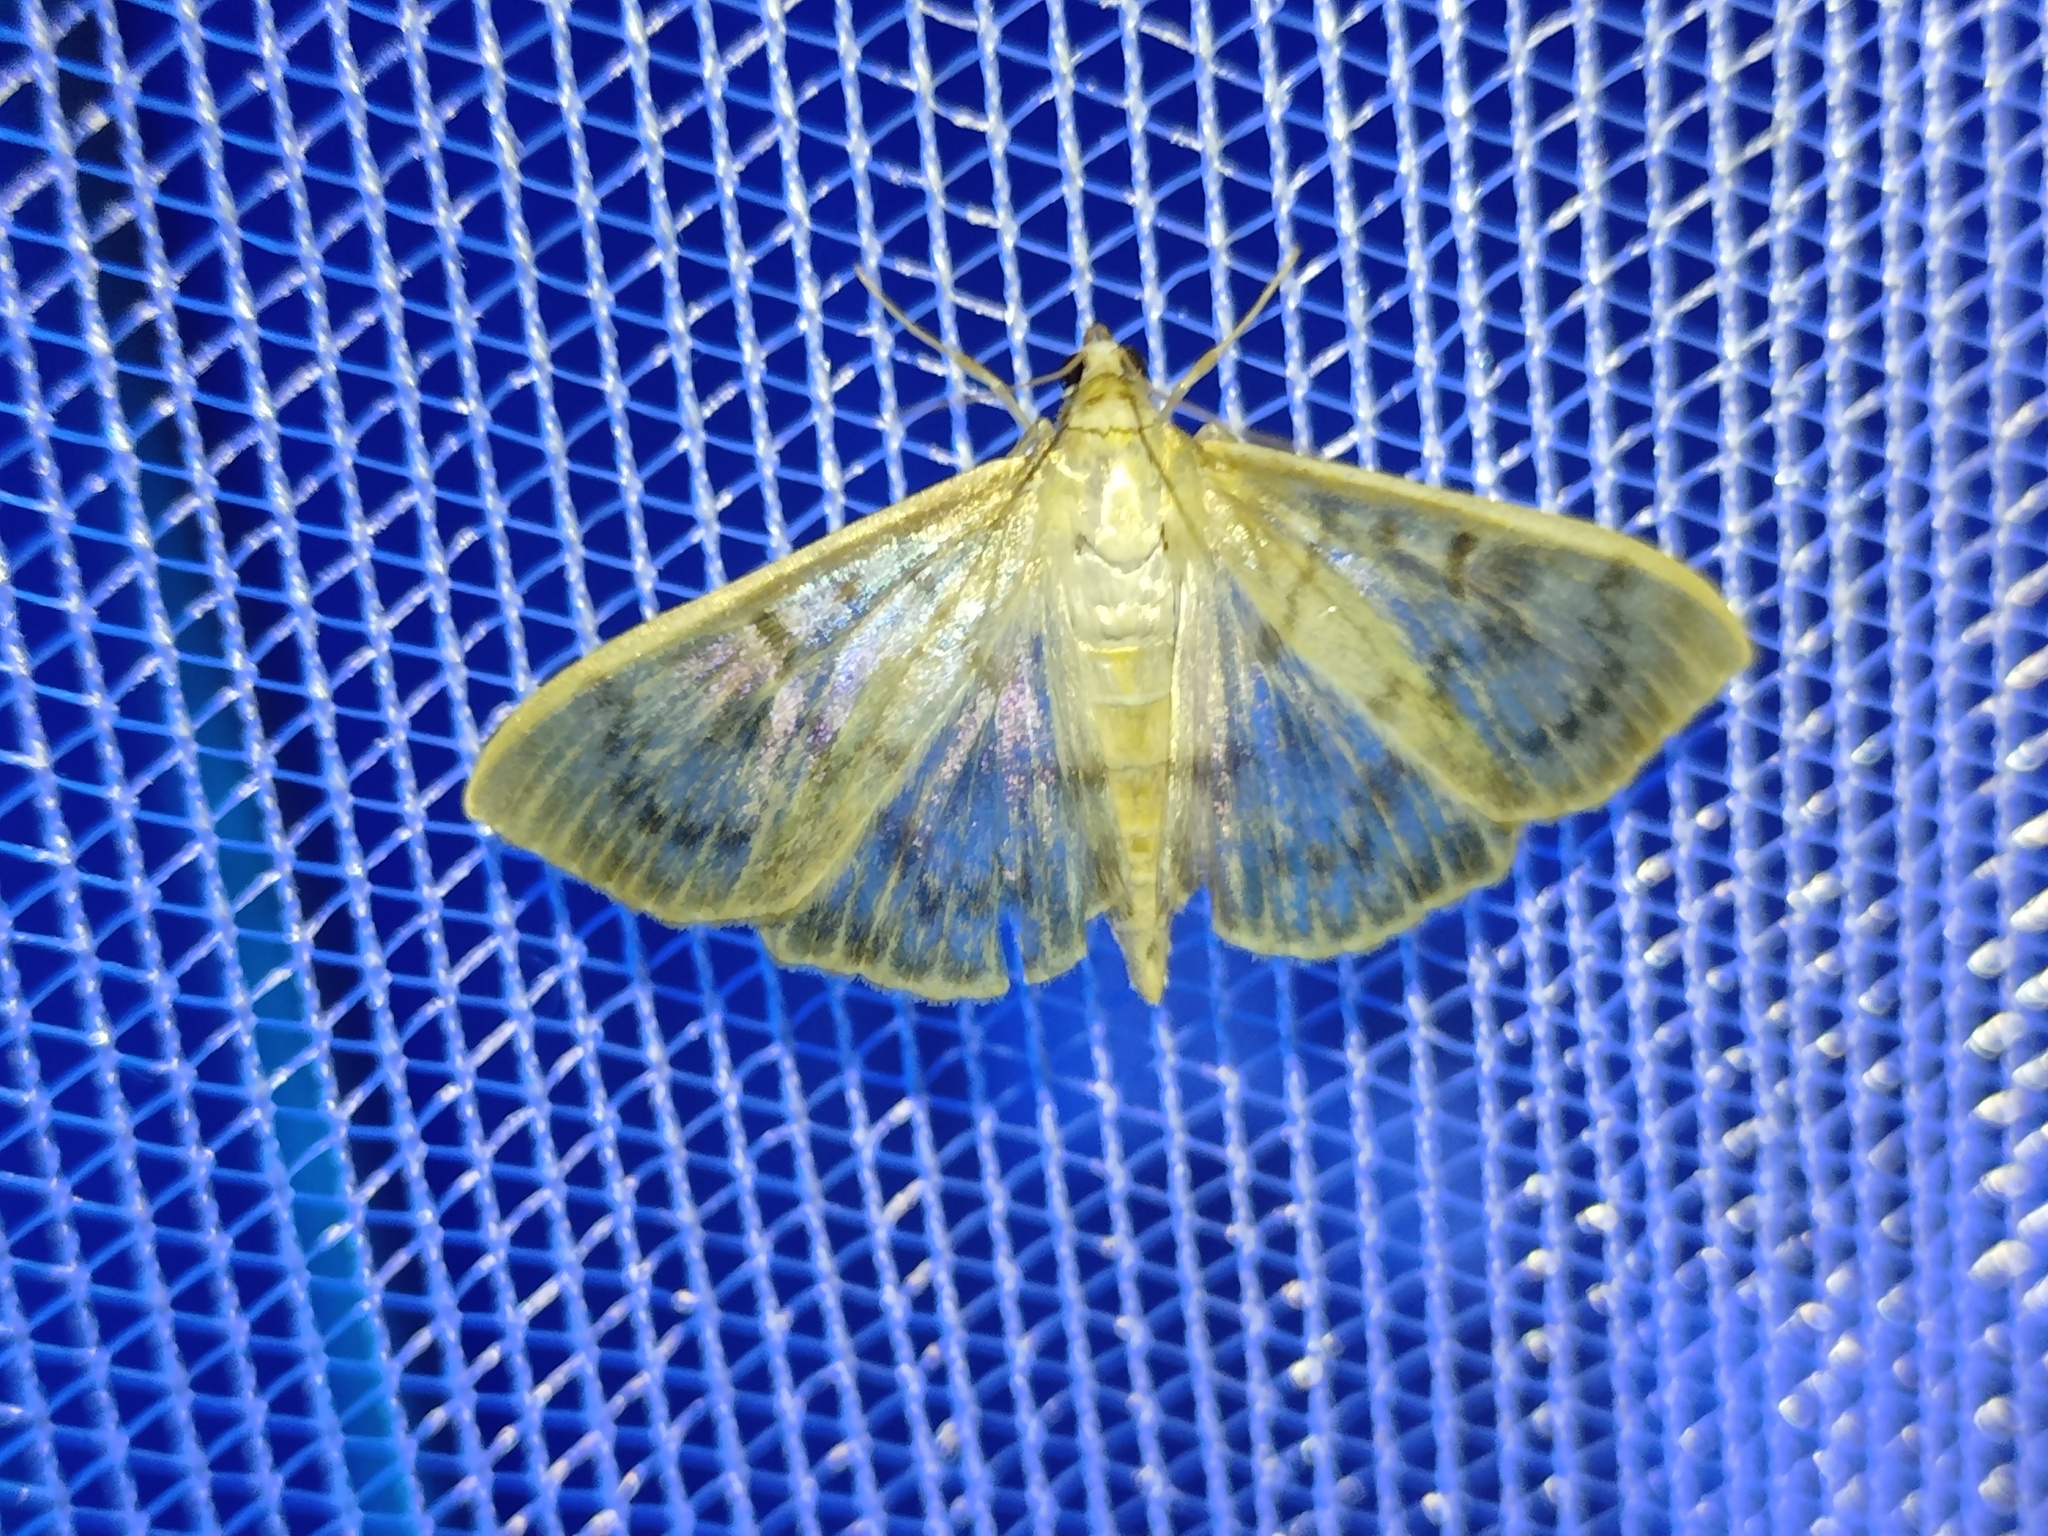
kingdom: Animalia
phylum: Arthropoda
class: Insecta
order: Lepidoptera
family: Crambidae
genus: Patania
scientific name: Patania ruralis
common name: Mother of pearl
